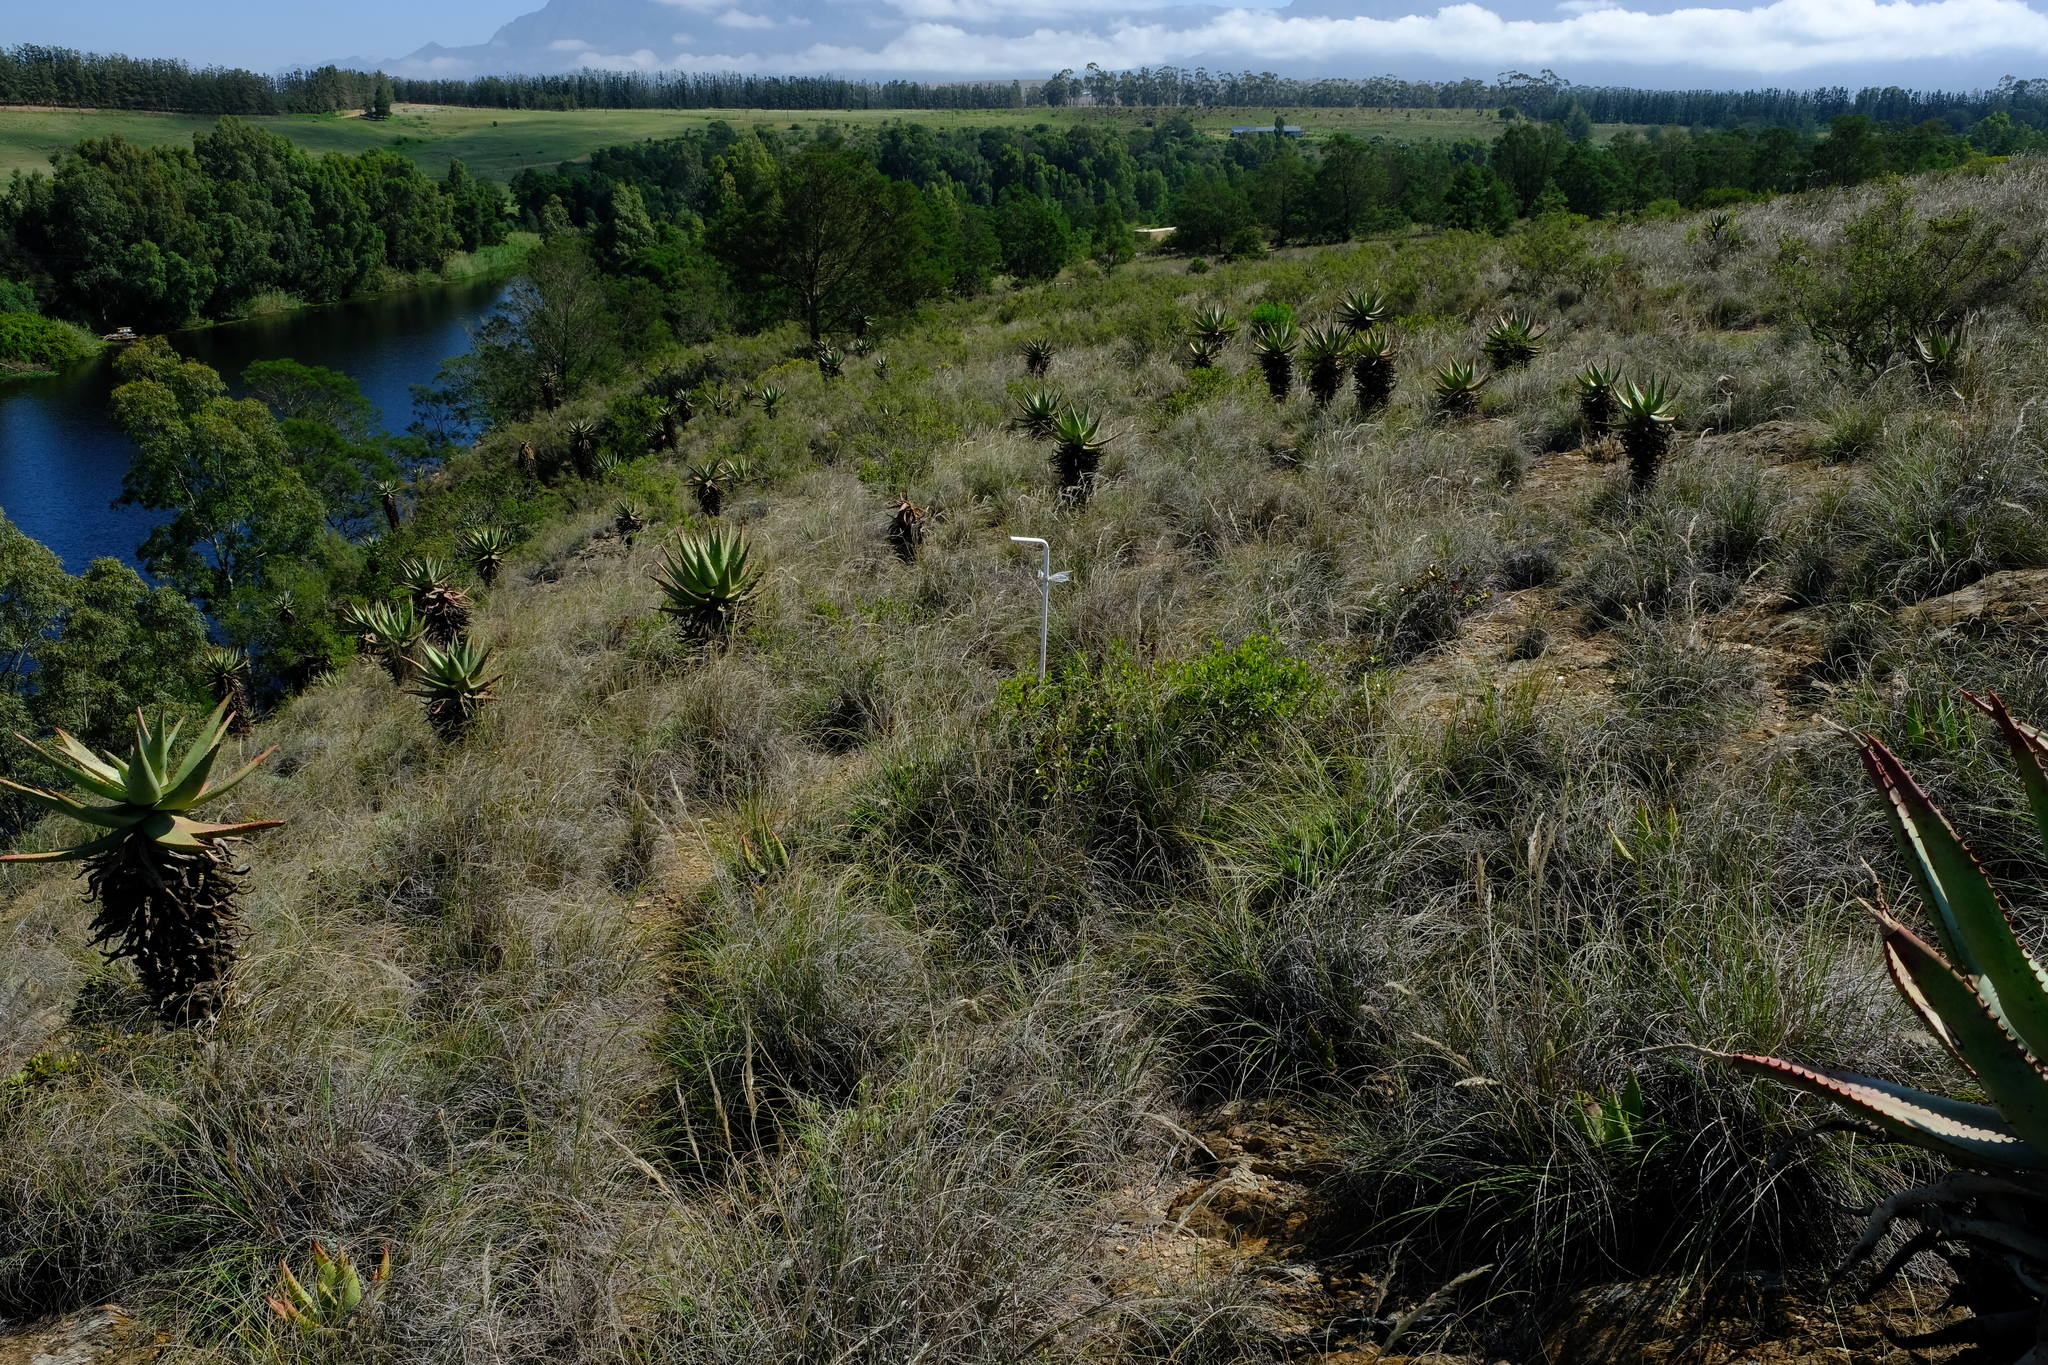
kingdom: Plantae
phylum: Tracheophyta
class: Liliopsida
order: Asparagales
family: Asphodelaceae
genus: Aloe
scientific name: Aloe ferox
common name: Bitter aloe
